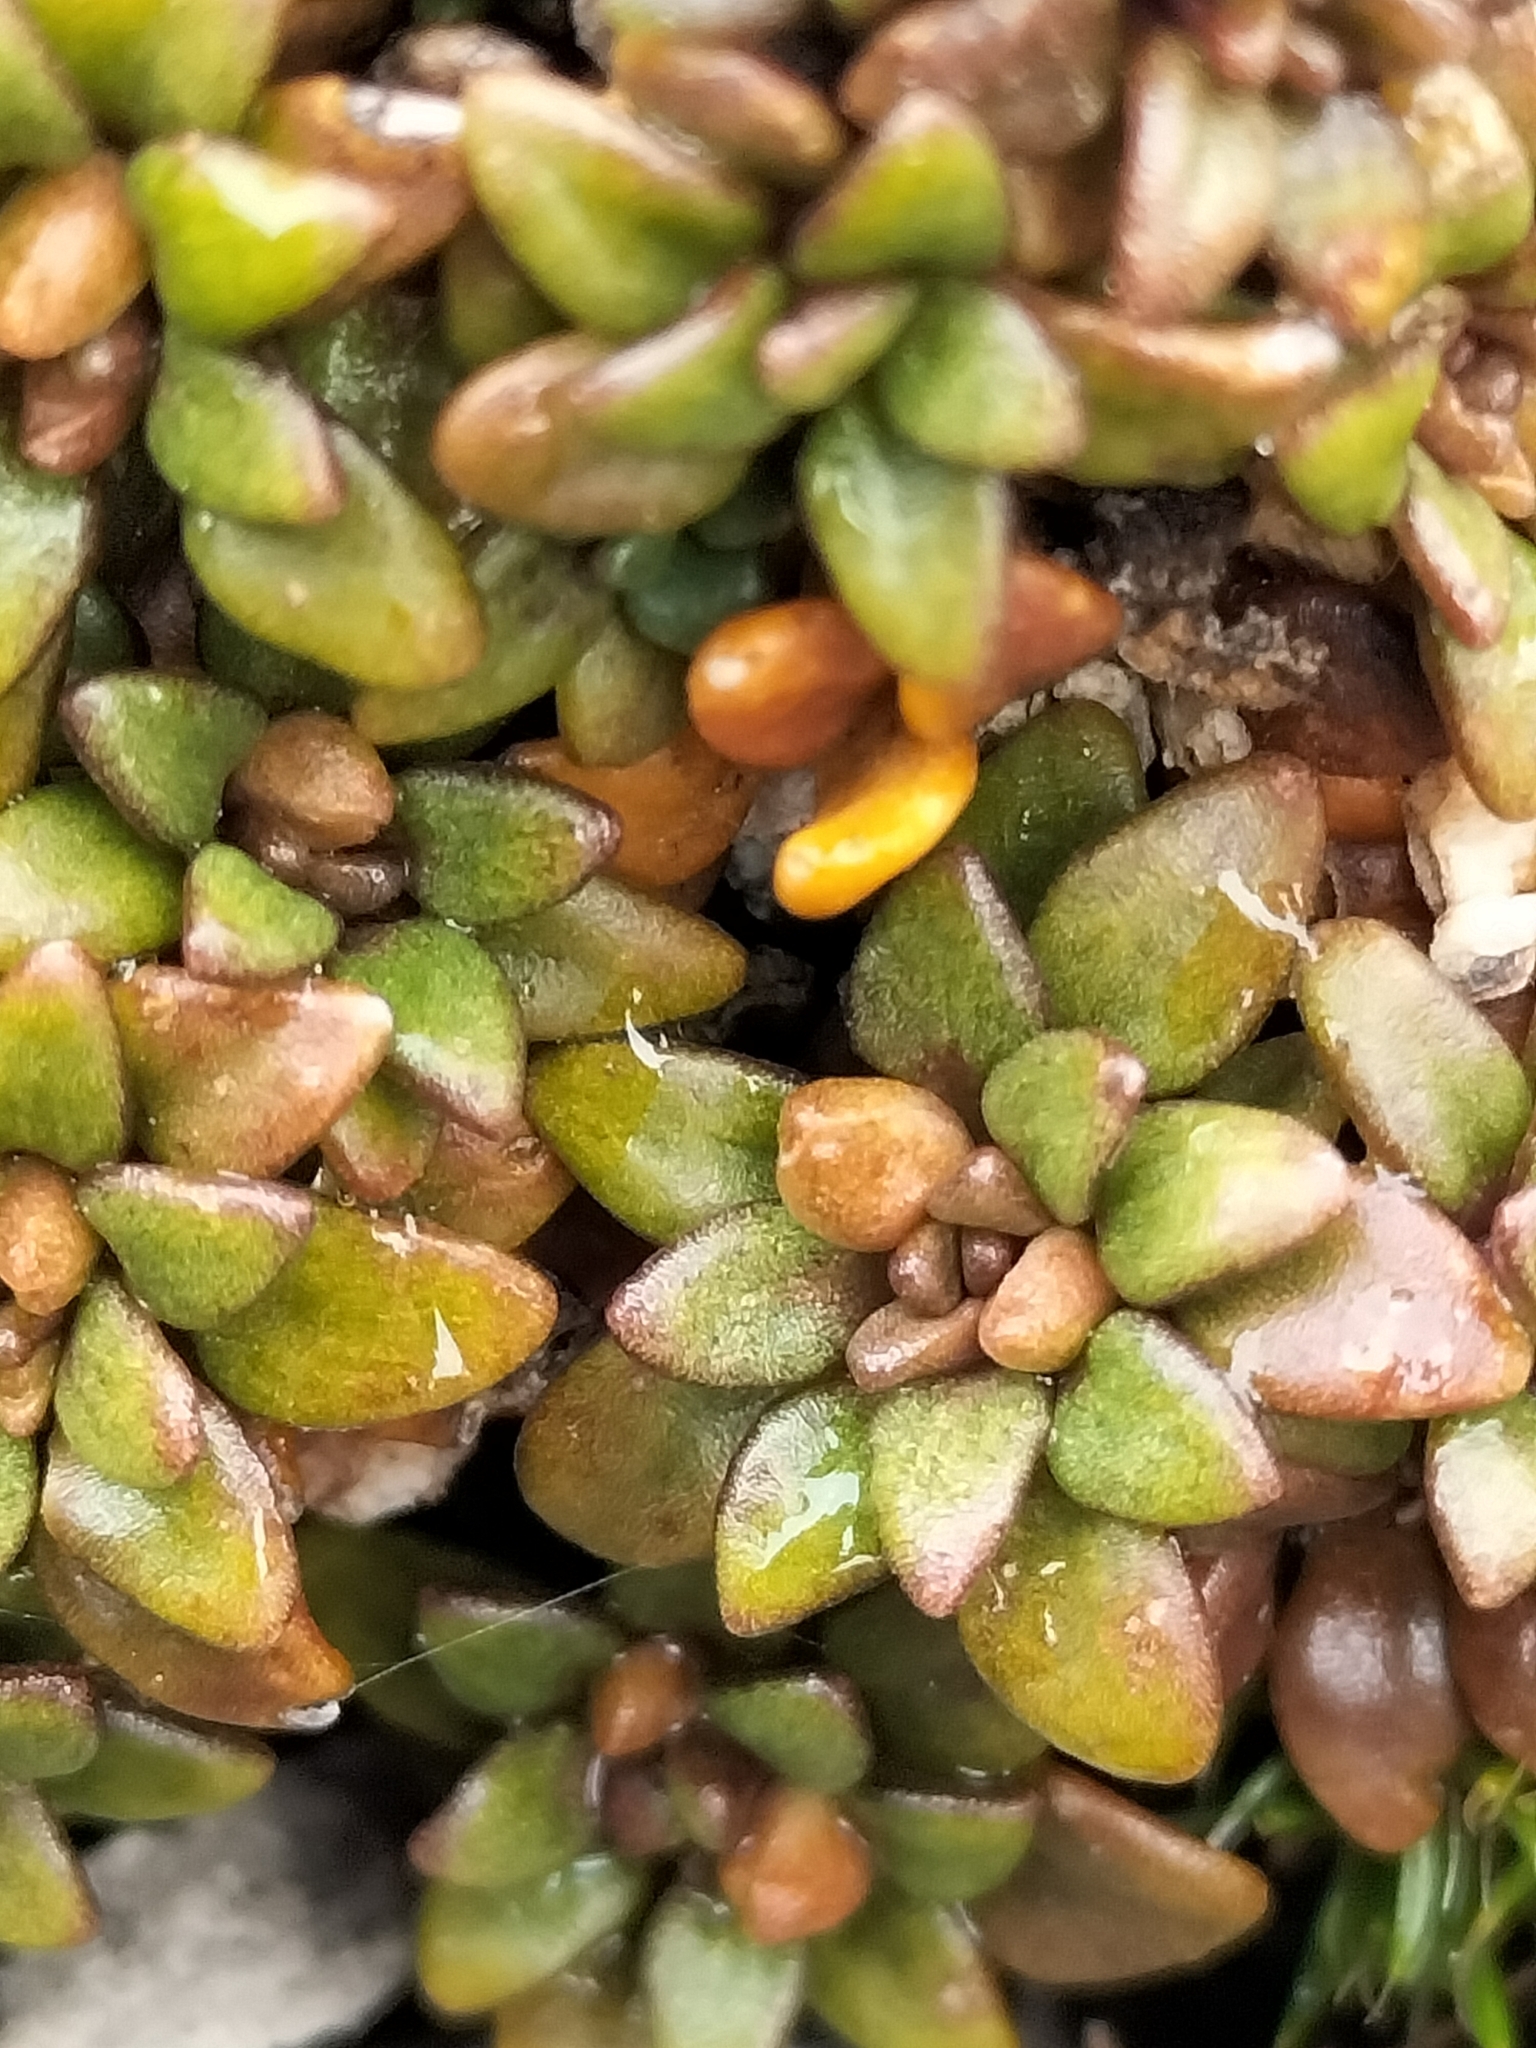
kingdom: Plantae
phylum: Tracheophyta
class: Magnoliopsida
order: Brassicales
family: Brassicaceae
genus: Notothlaspi
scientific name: Notothlaspi australe
